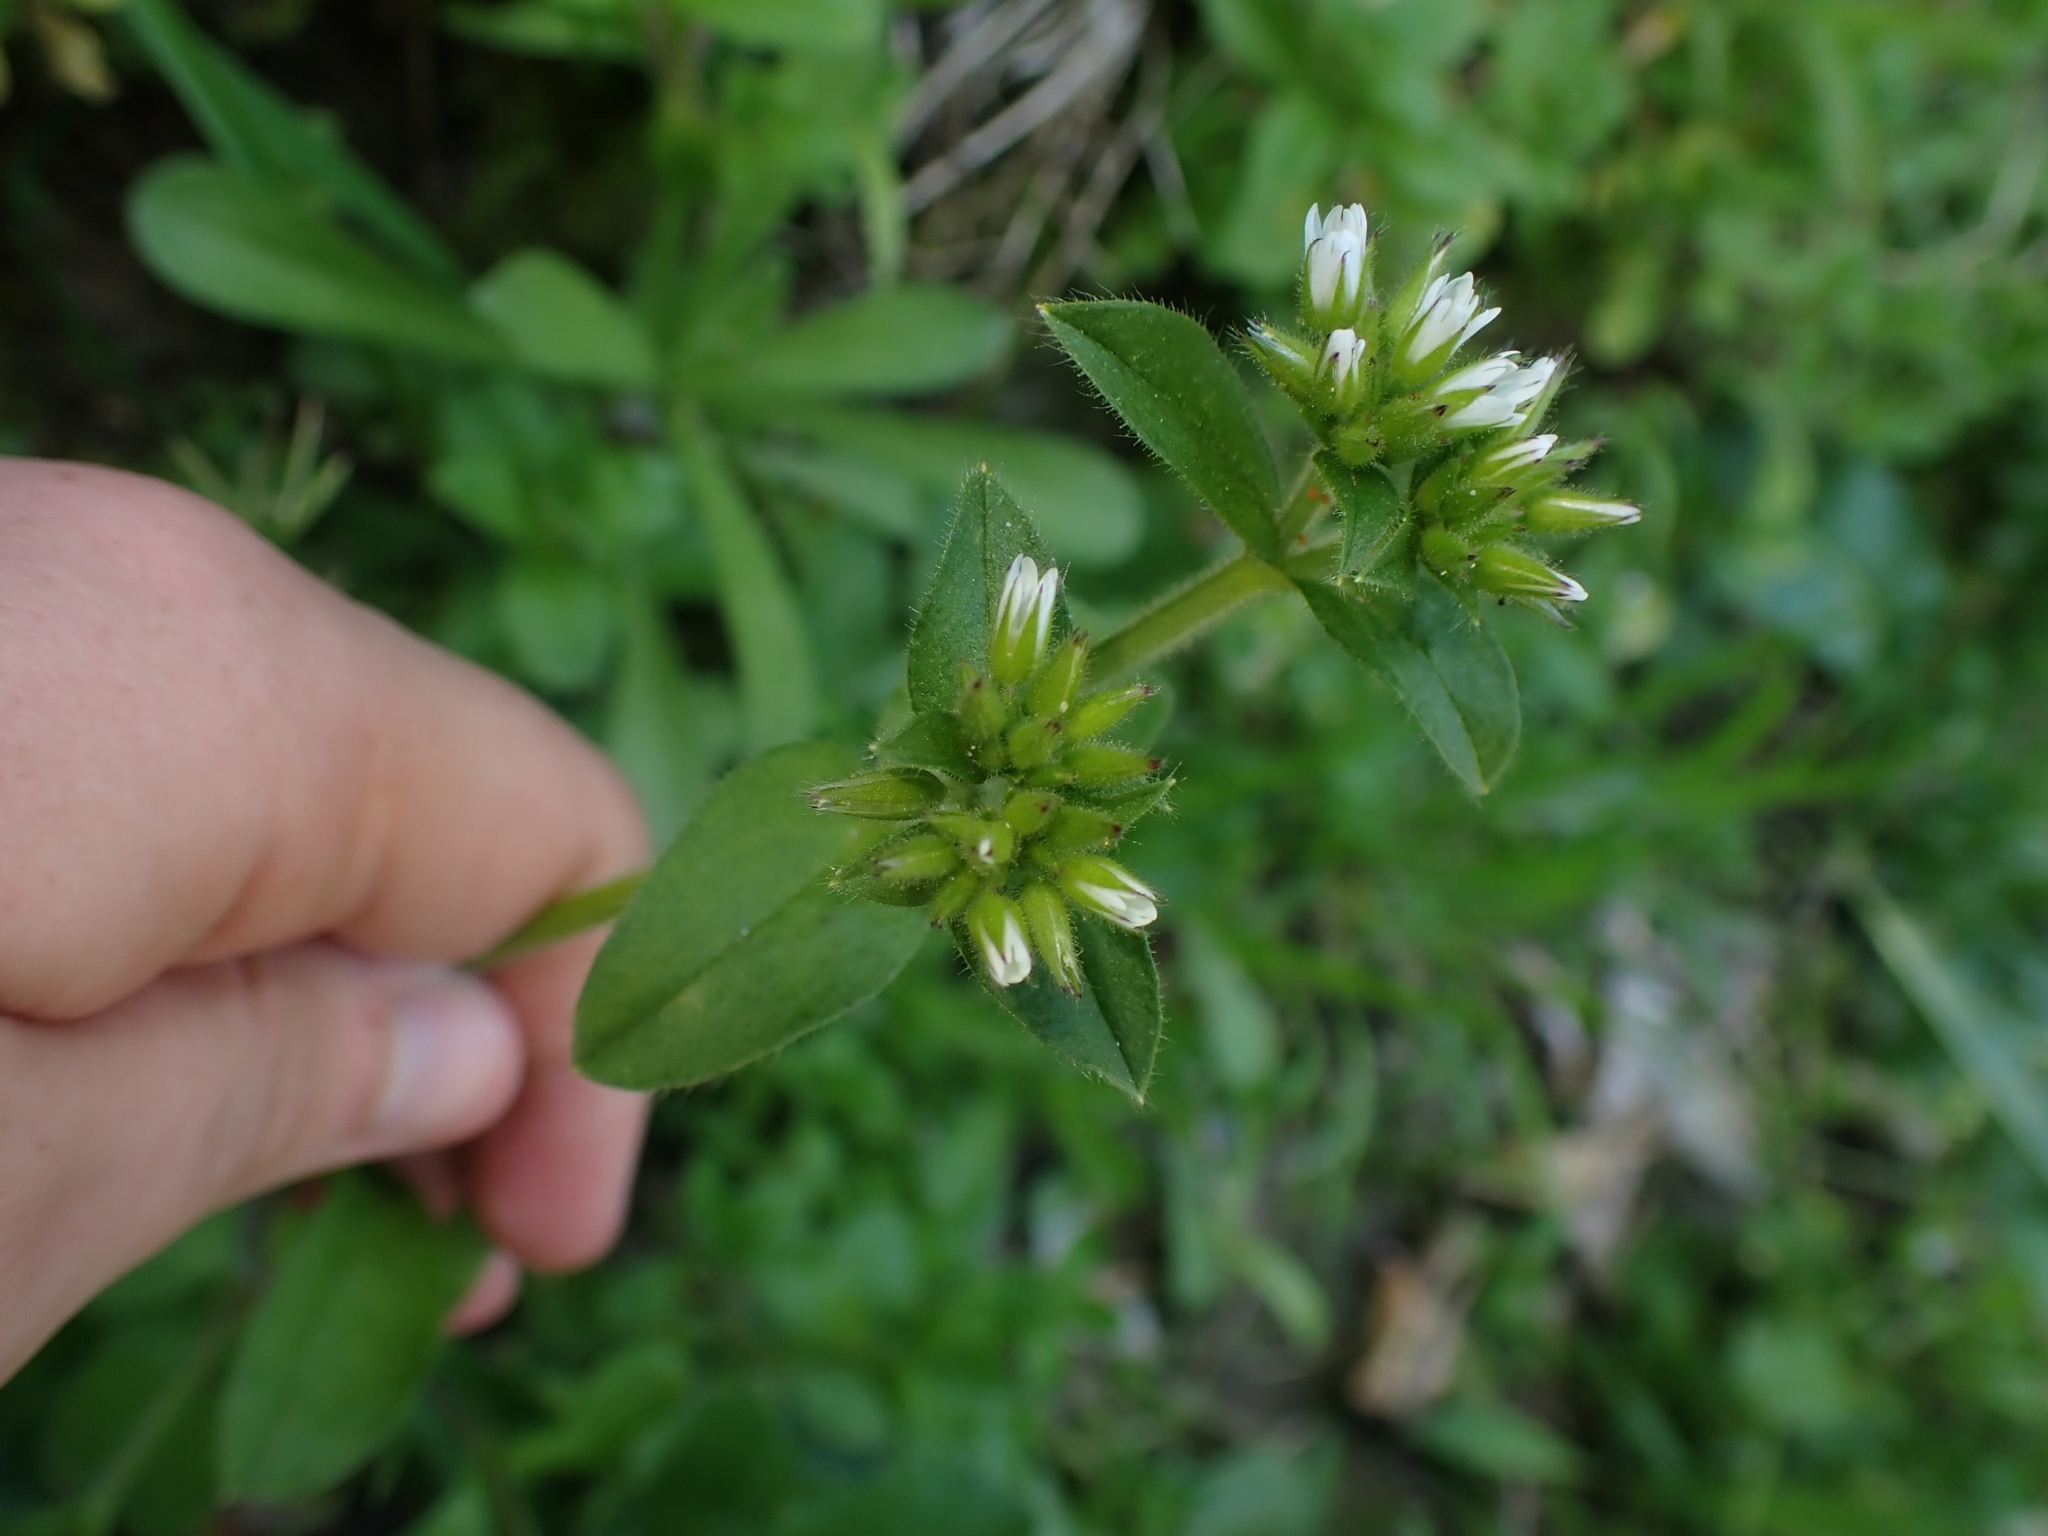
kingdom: Plantae
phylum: Tracheophyta
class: Magnoliopsida
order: Caryophyllales
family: Caryophyllaceae
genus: Cerastium
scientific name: Cerastium glomeratum
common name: Sticky chickweed
